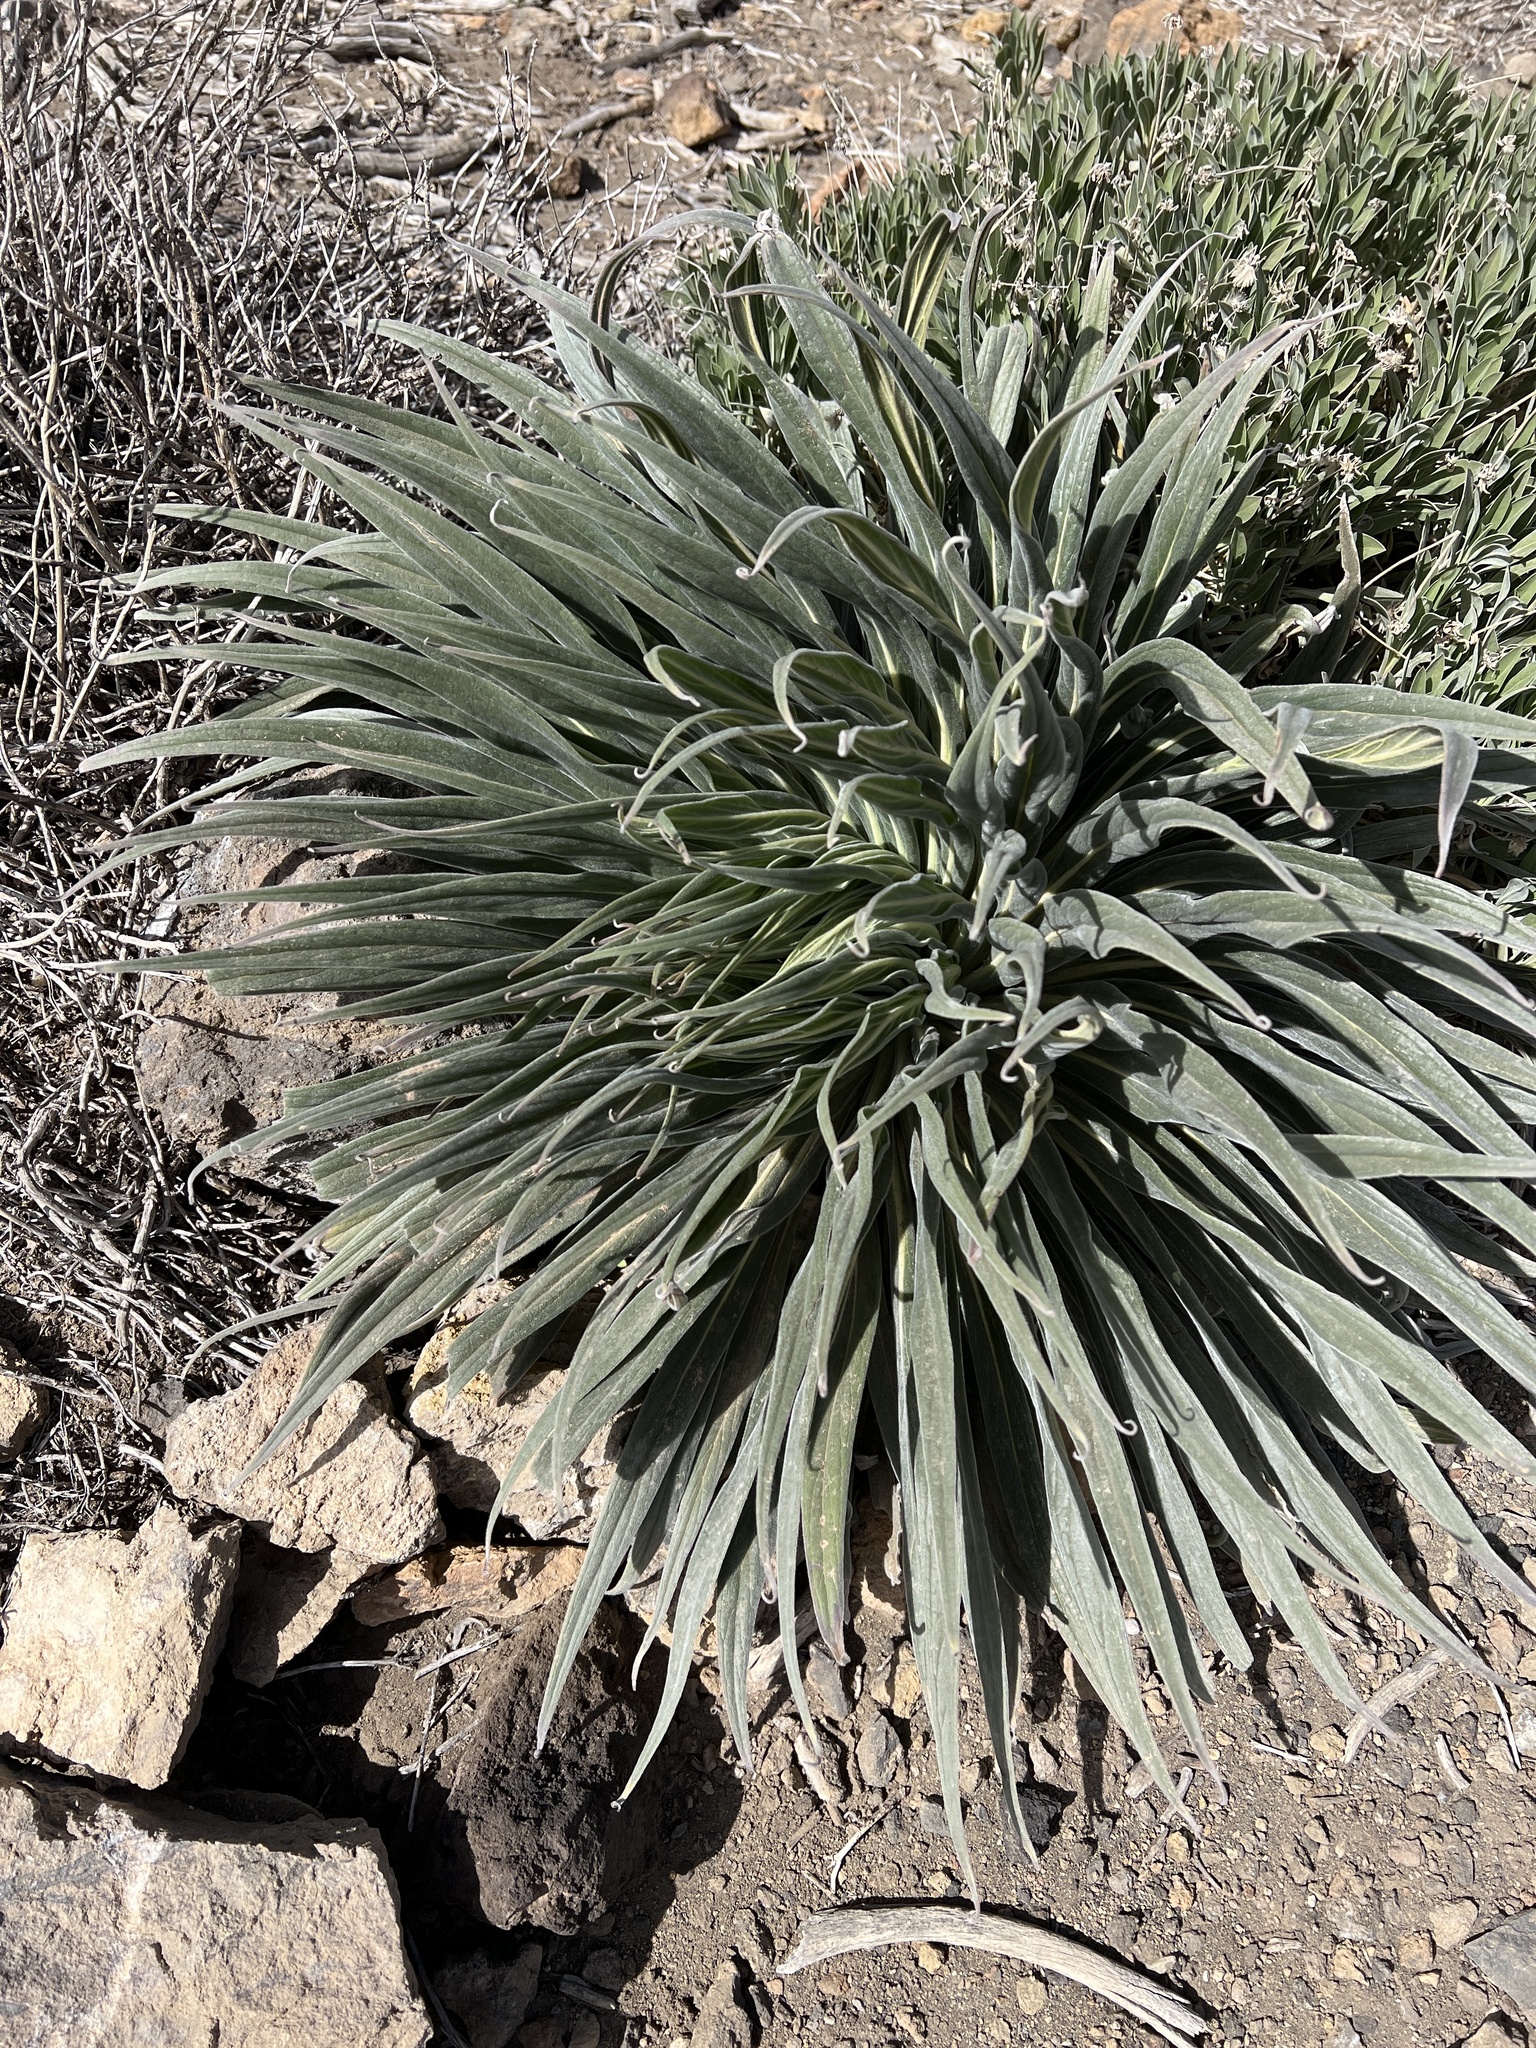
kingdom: Plantae
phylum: Tracheophyta
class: Magnoliopsida
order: Boraginales
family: Boraginaceae
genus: Echium
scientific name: Echium wildpretii
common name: Tower-of-jewels
